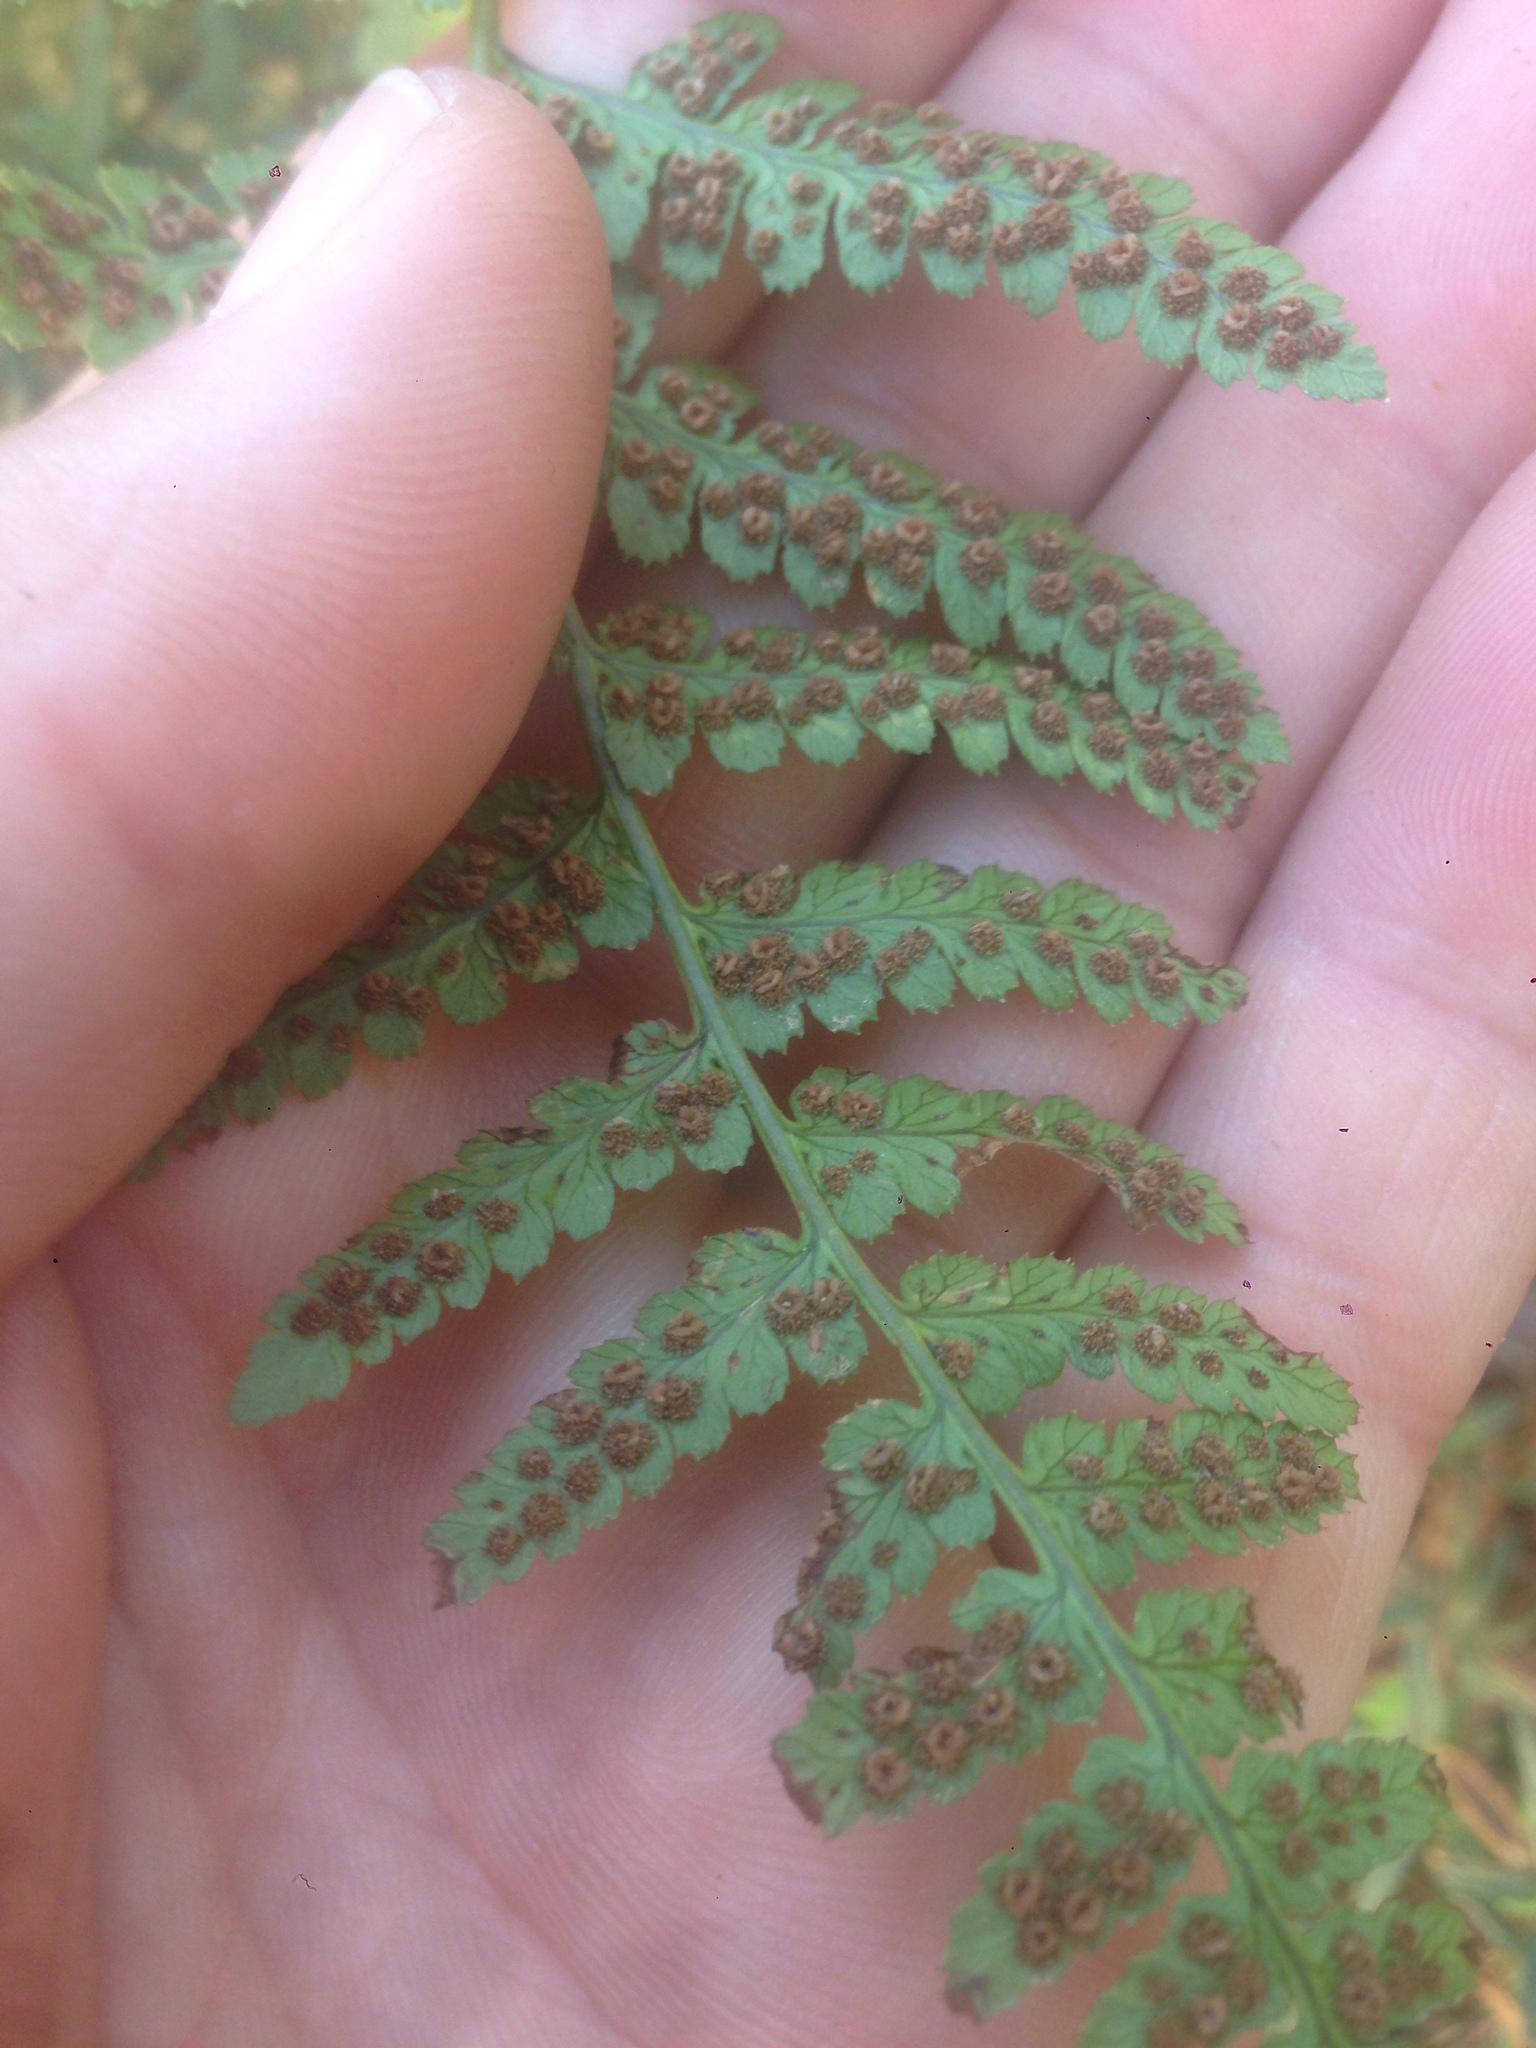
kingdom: Plantae
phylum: Tracheophyta
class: Polypodiopsida
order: Polypodiales
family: Dryopteridaceae
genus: Dryopteris
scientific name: Dryopteris arguta
